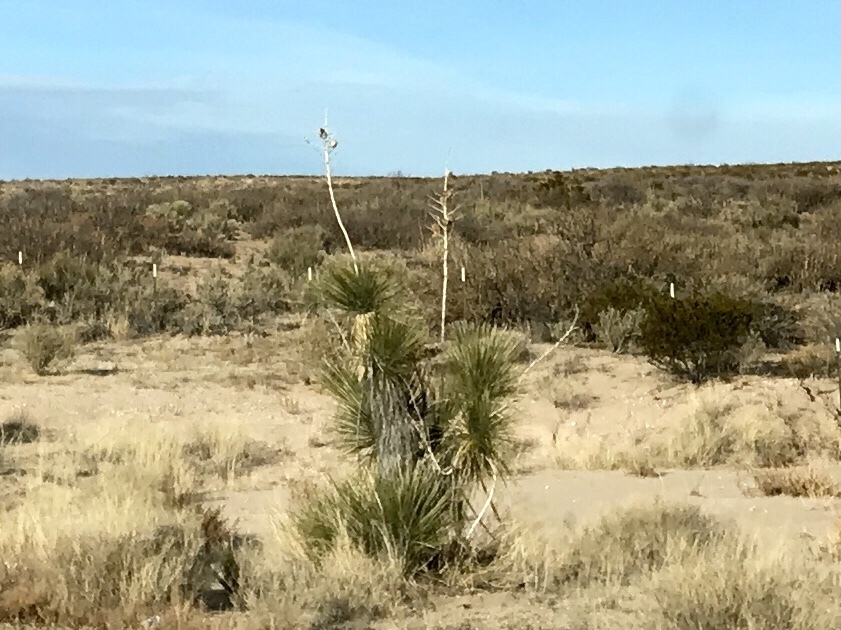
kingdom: Plantae
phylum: Tracheophyta
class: Liliopsida
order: Asparagales
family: Asparagaceae
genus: Yucca
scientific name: Yucca elata
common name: Palmella
